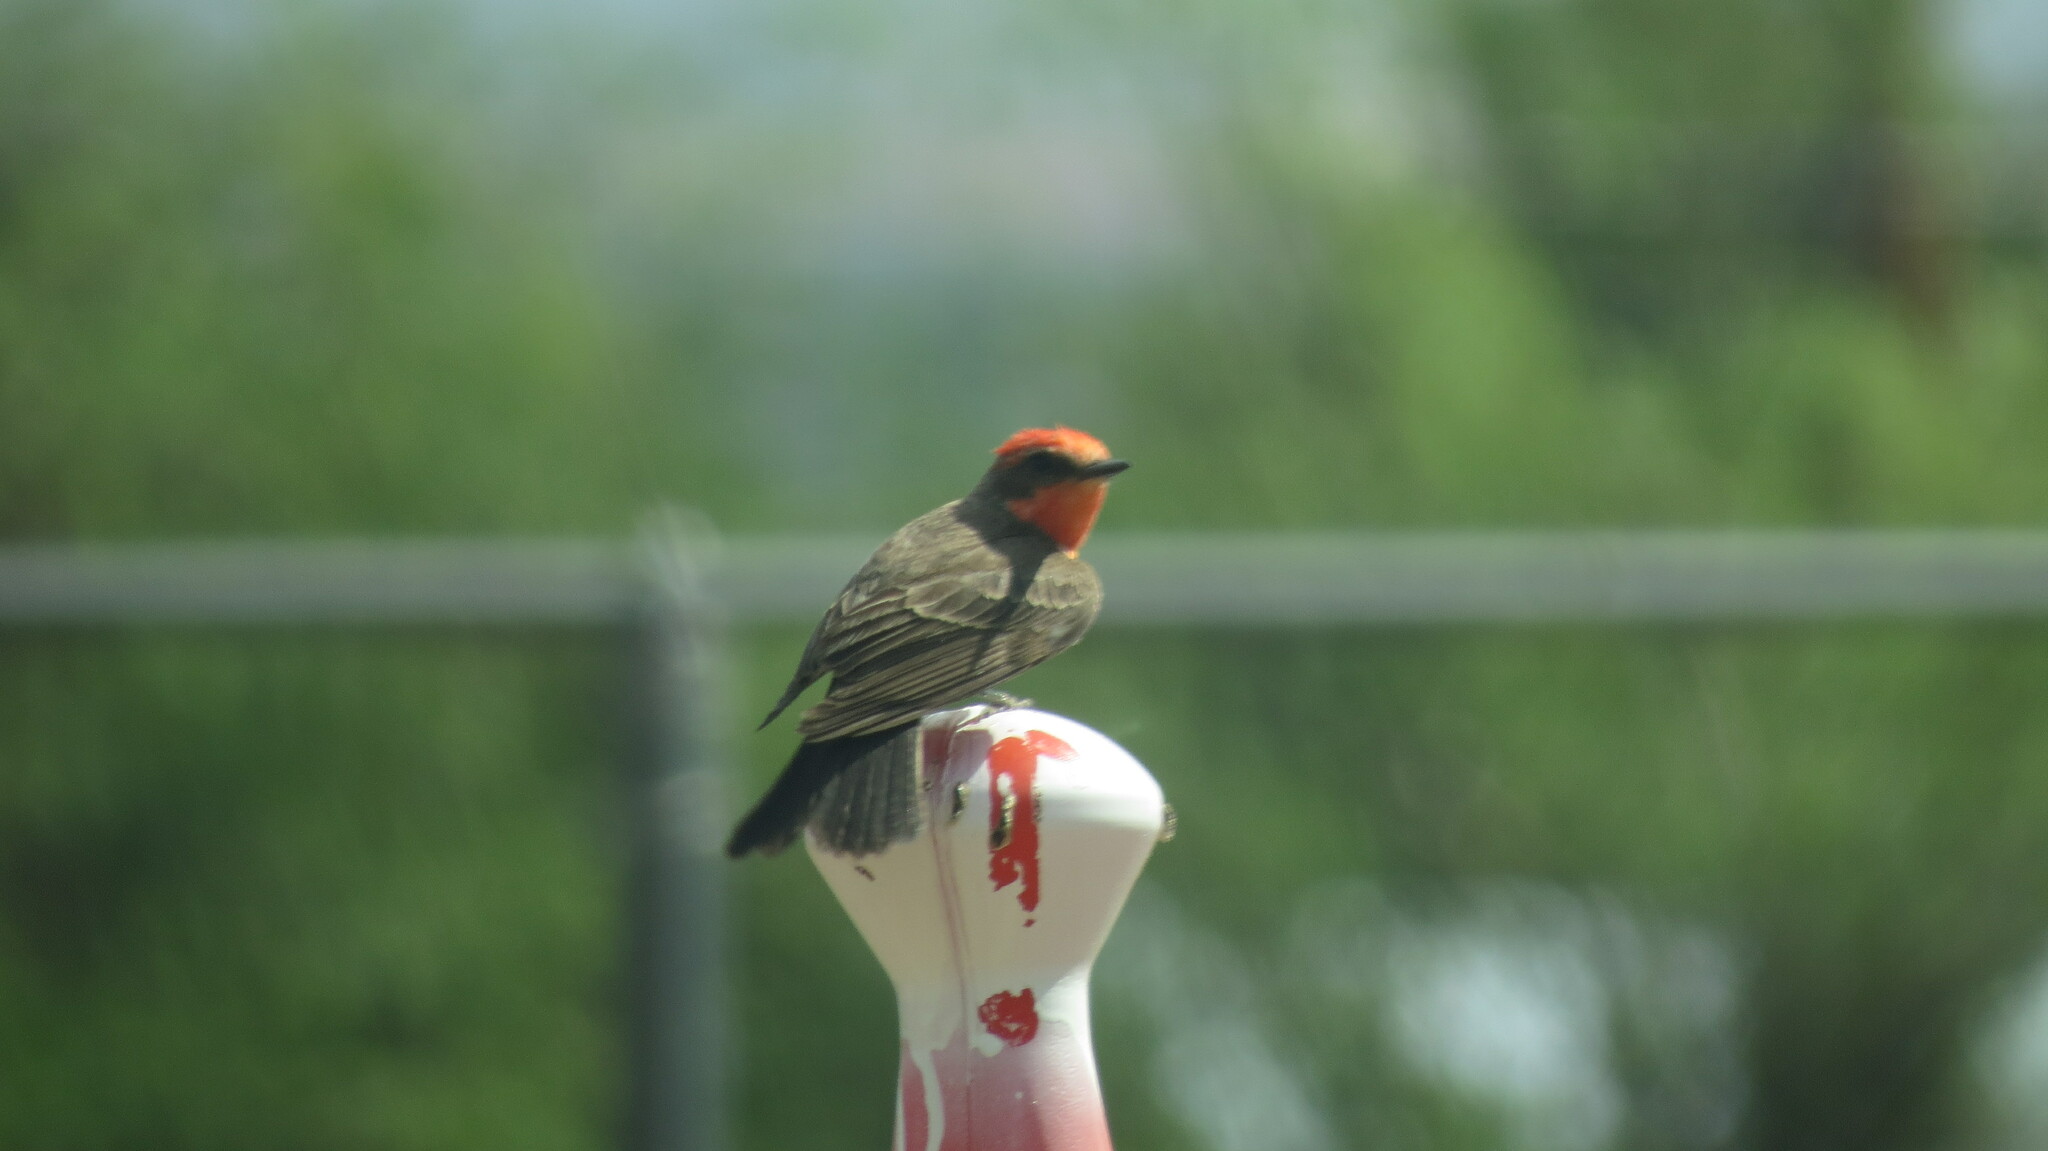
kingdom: Animalia
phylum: Chordata
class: Aves
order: Passeriformes
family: Tyrannidae
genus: Pyrocephalus
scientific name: Pyrocephalus rubinus
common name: Vermilion flycatcher
